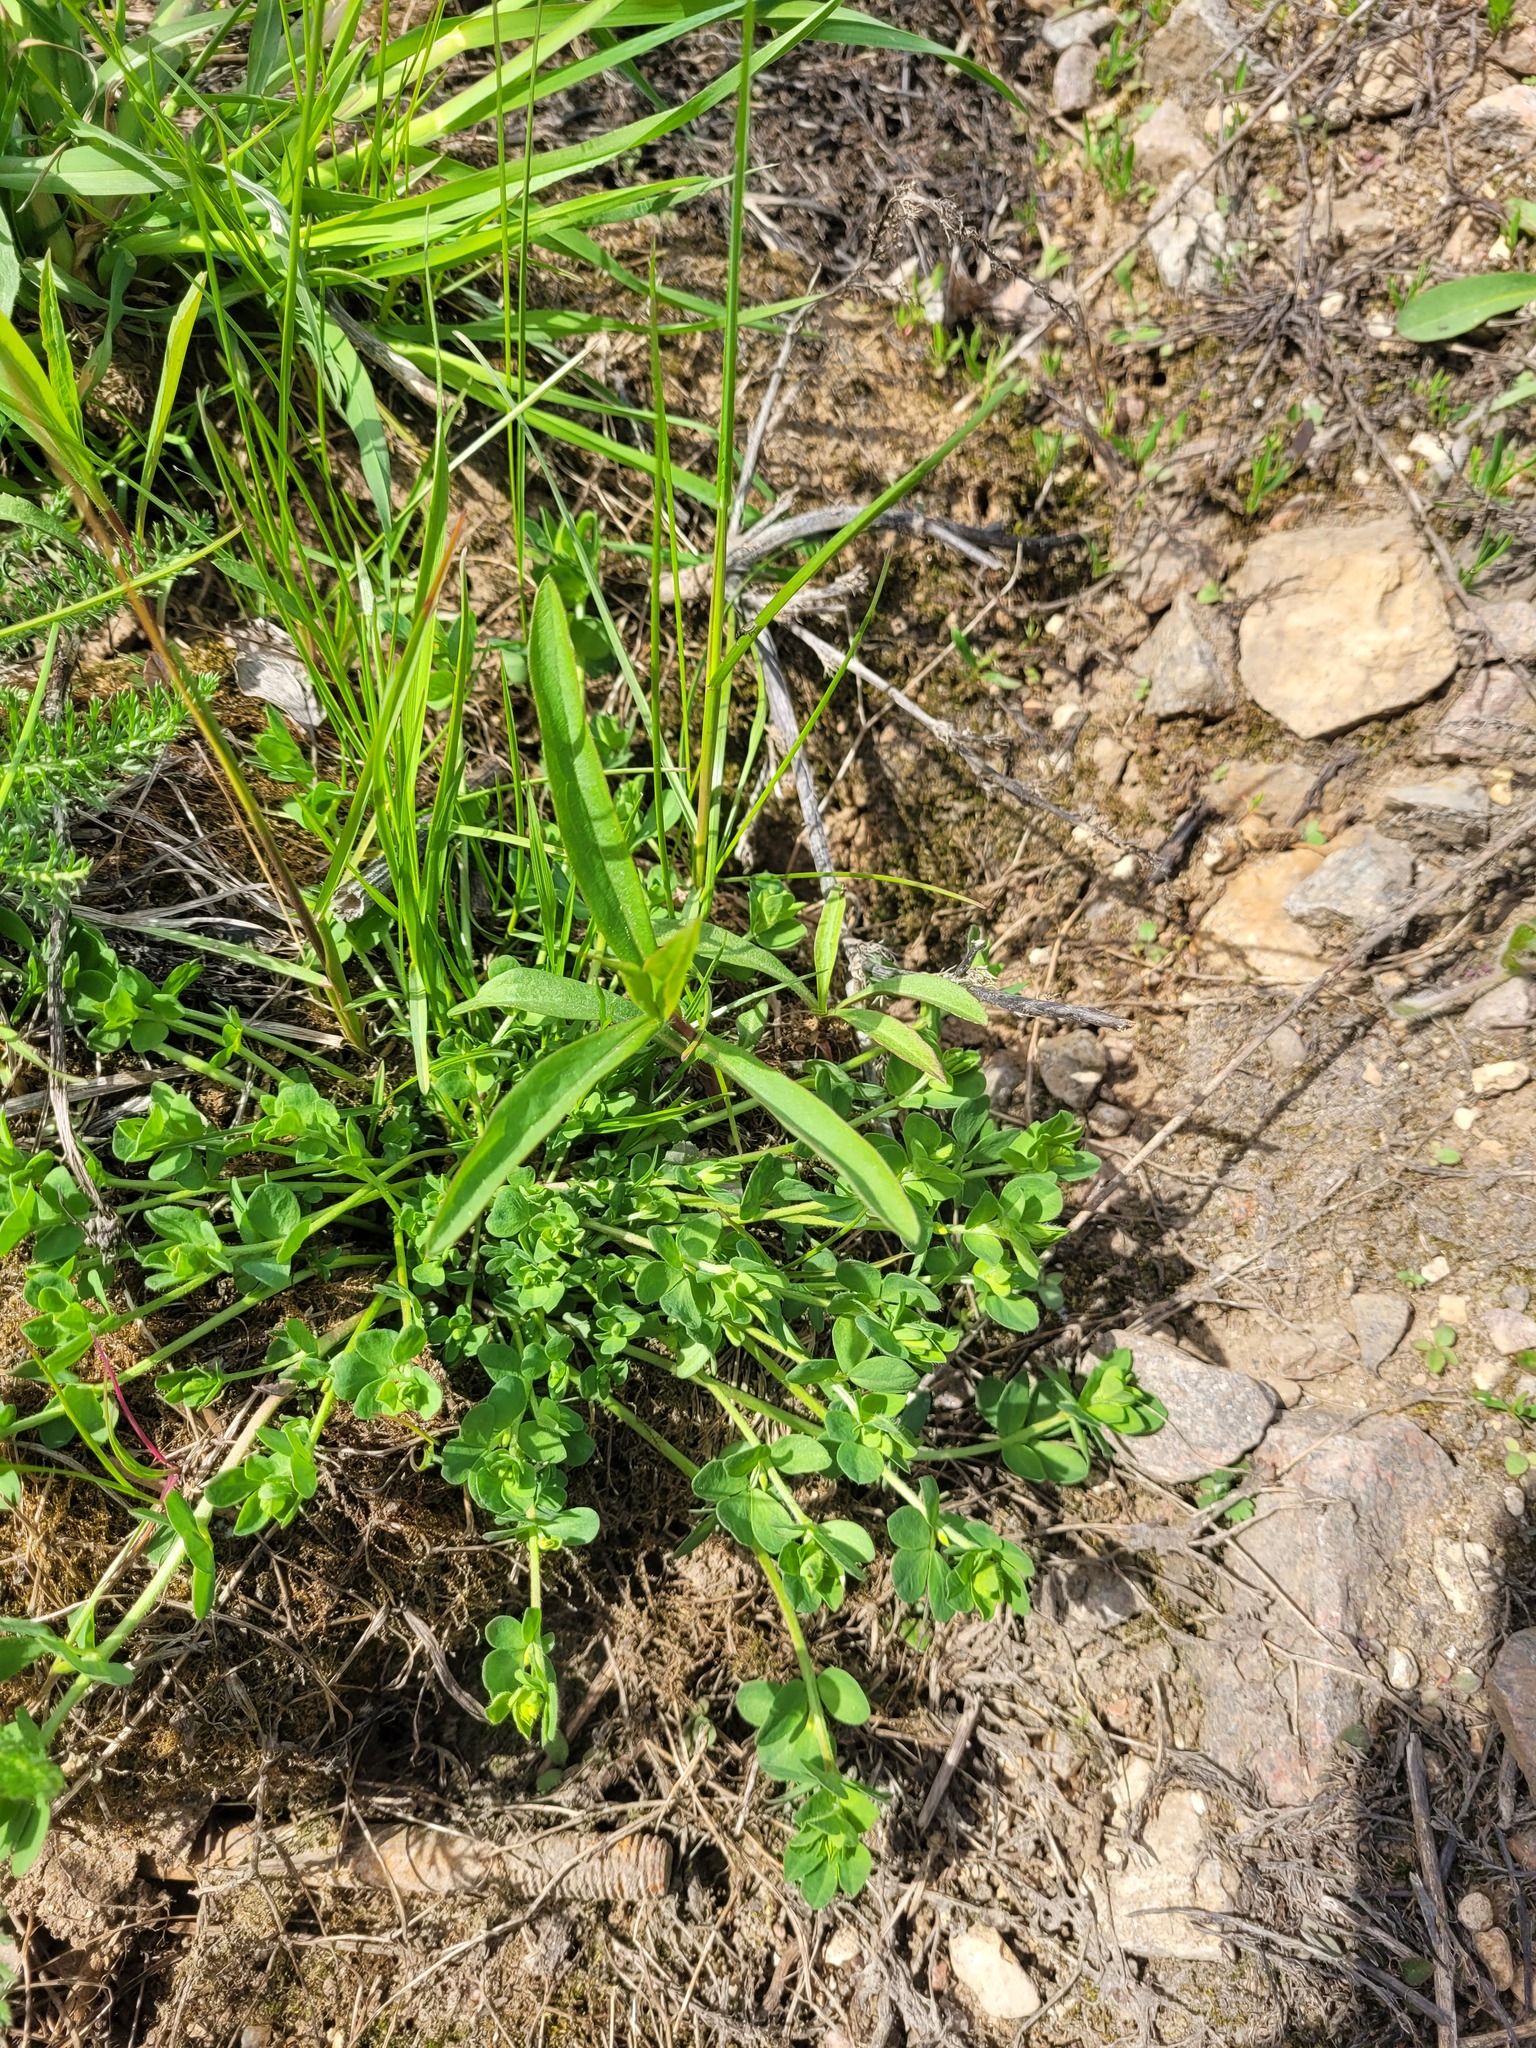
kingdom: Plantae
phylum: Tracheophyta
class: Magnoliopsida
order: Fabales
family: Fabaceae
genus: Lotus
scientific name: Lotus corniculatus
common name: Common bird's-foot-trefoil
